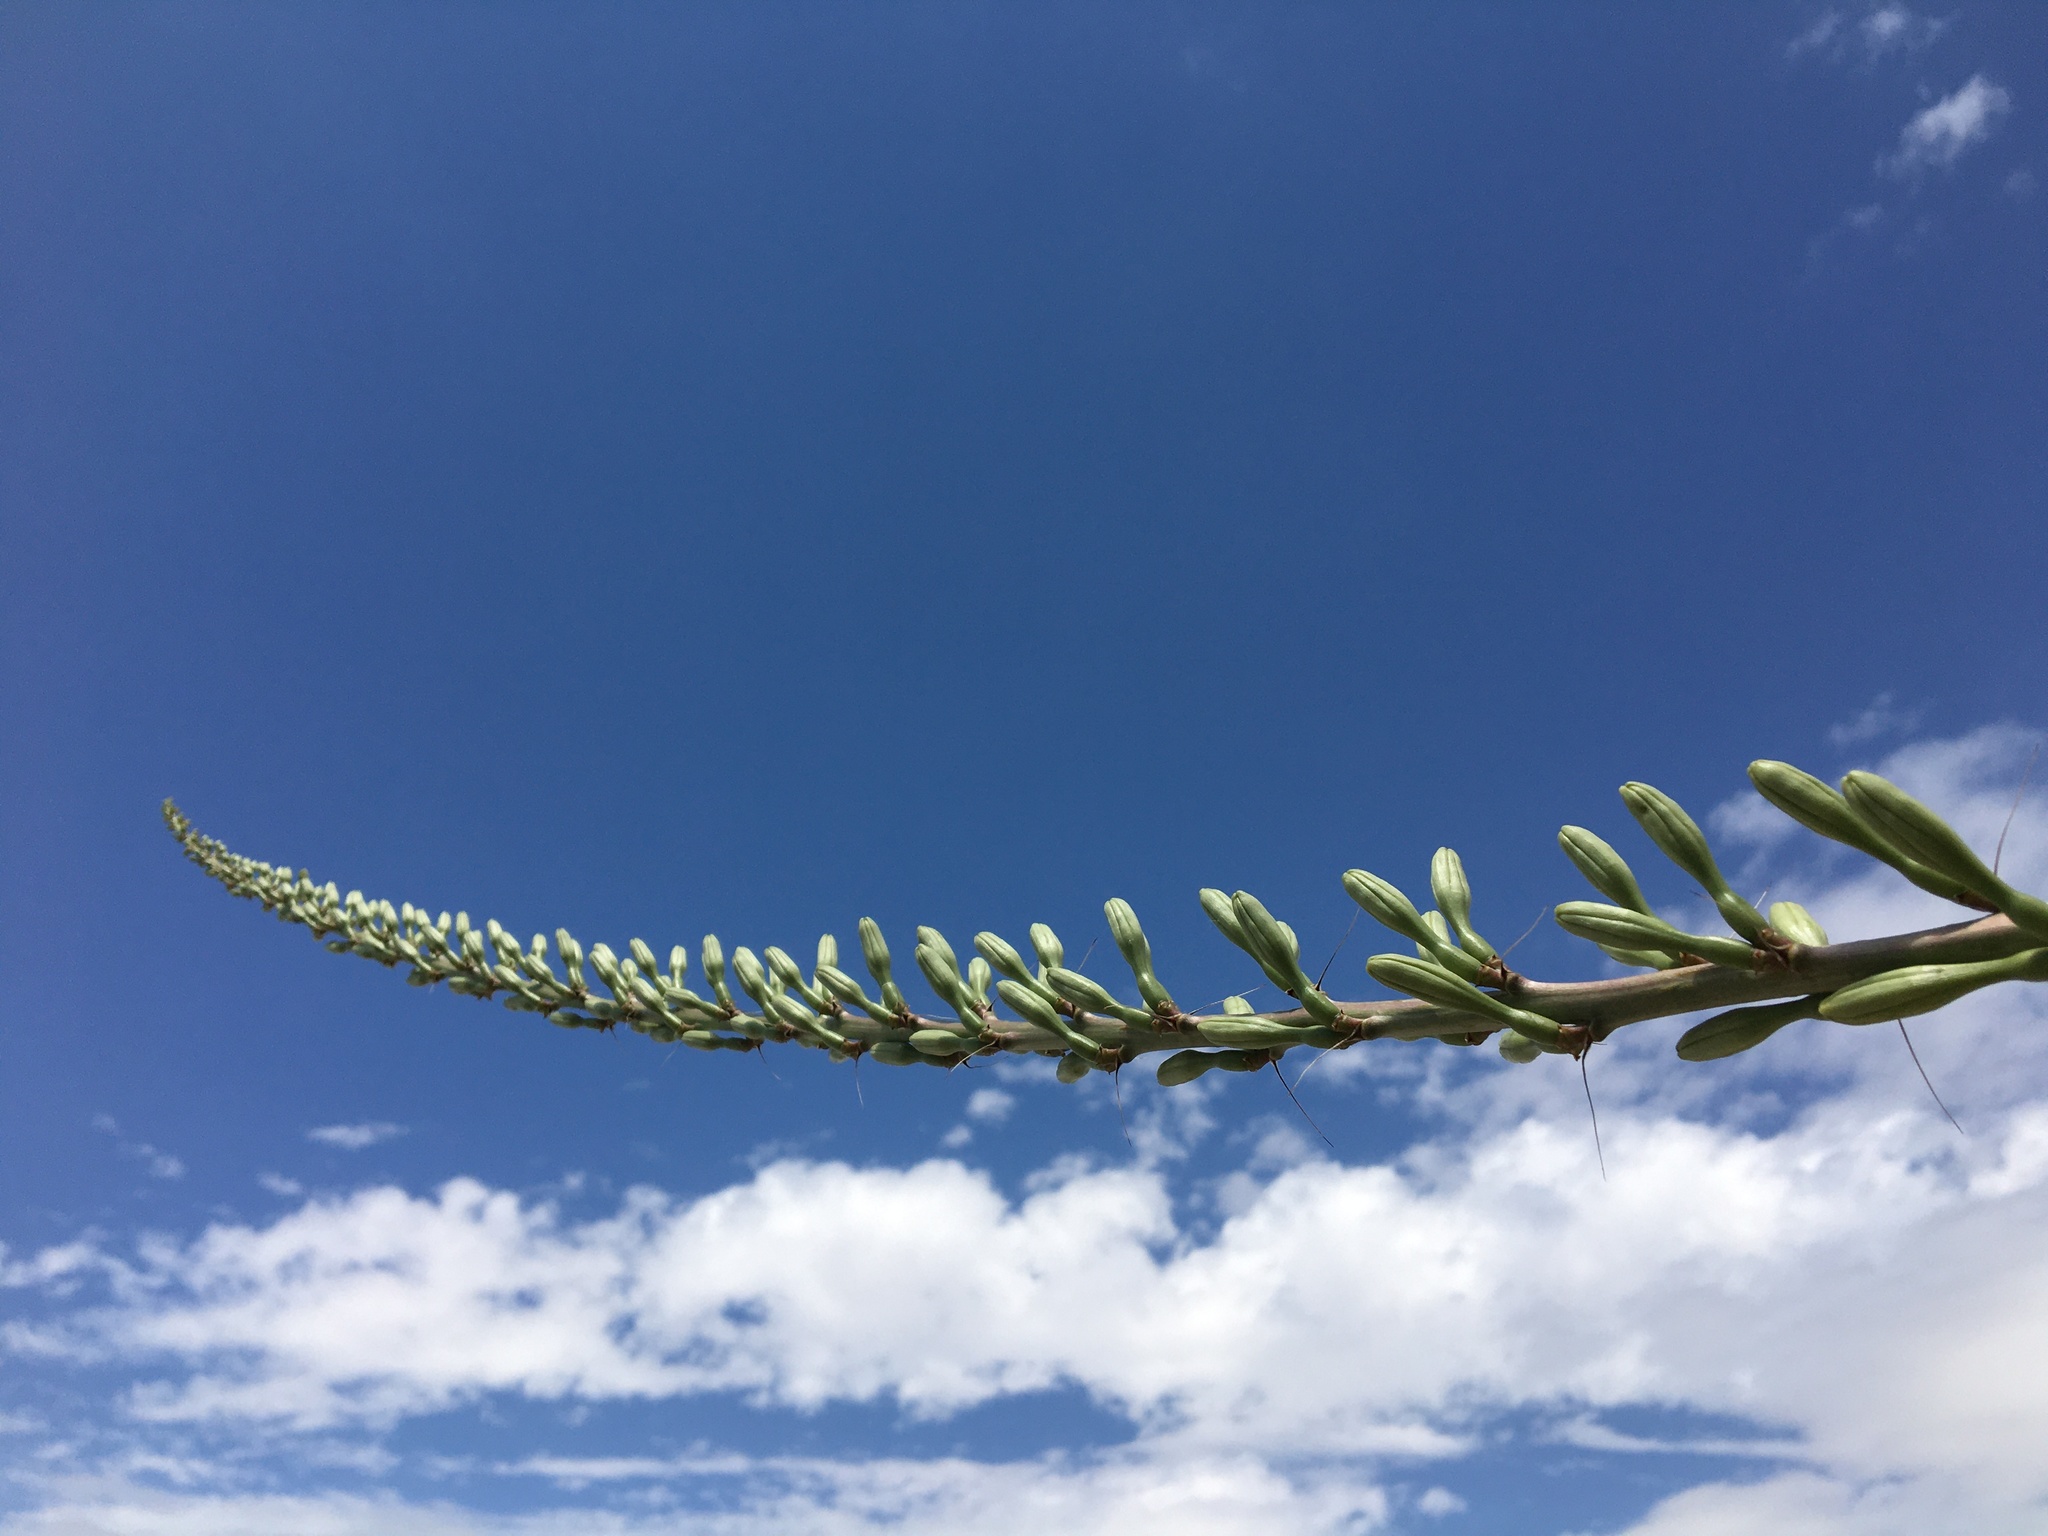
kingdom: Plantae
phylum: Tracheophyta
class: Liliopsida
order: Asparagales
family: Asparagaceae
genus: Agave
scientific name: Agave schottii
